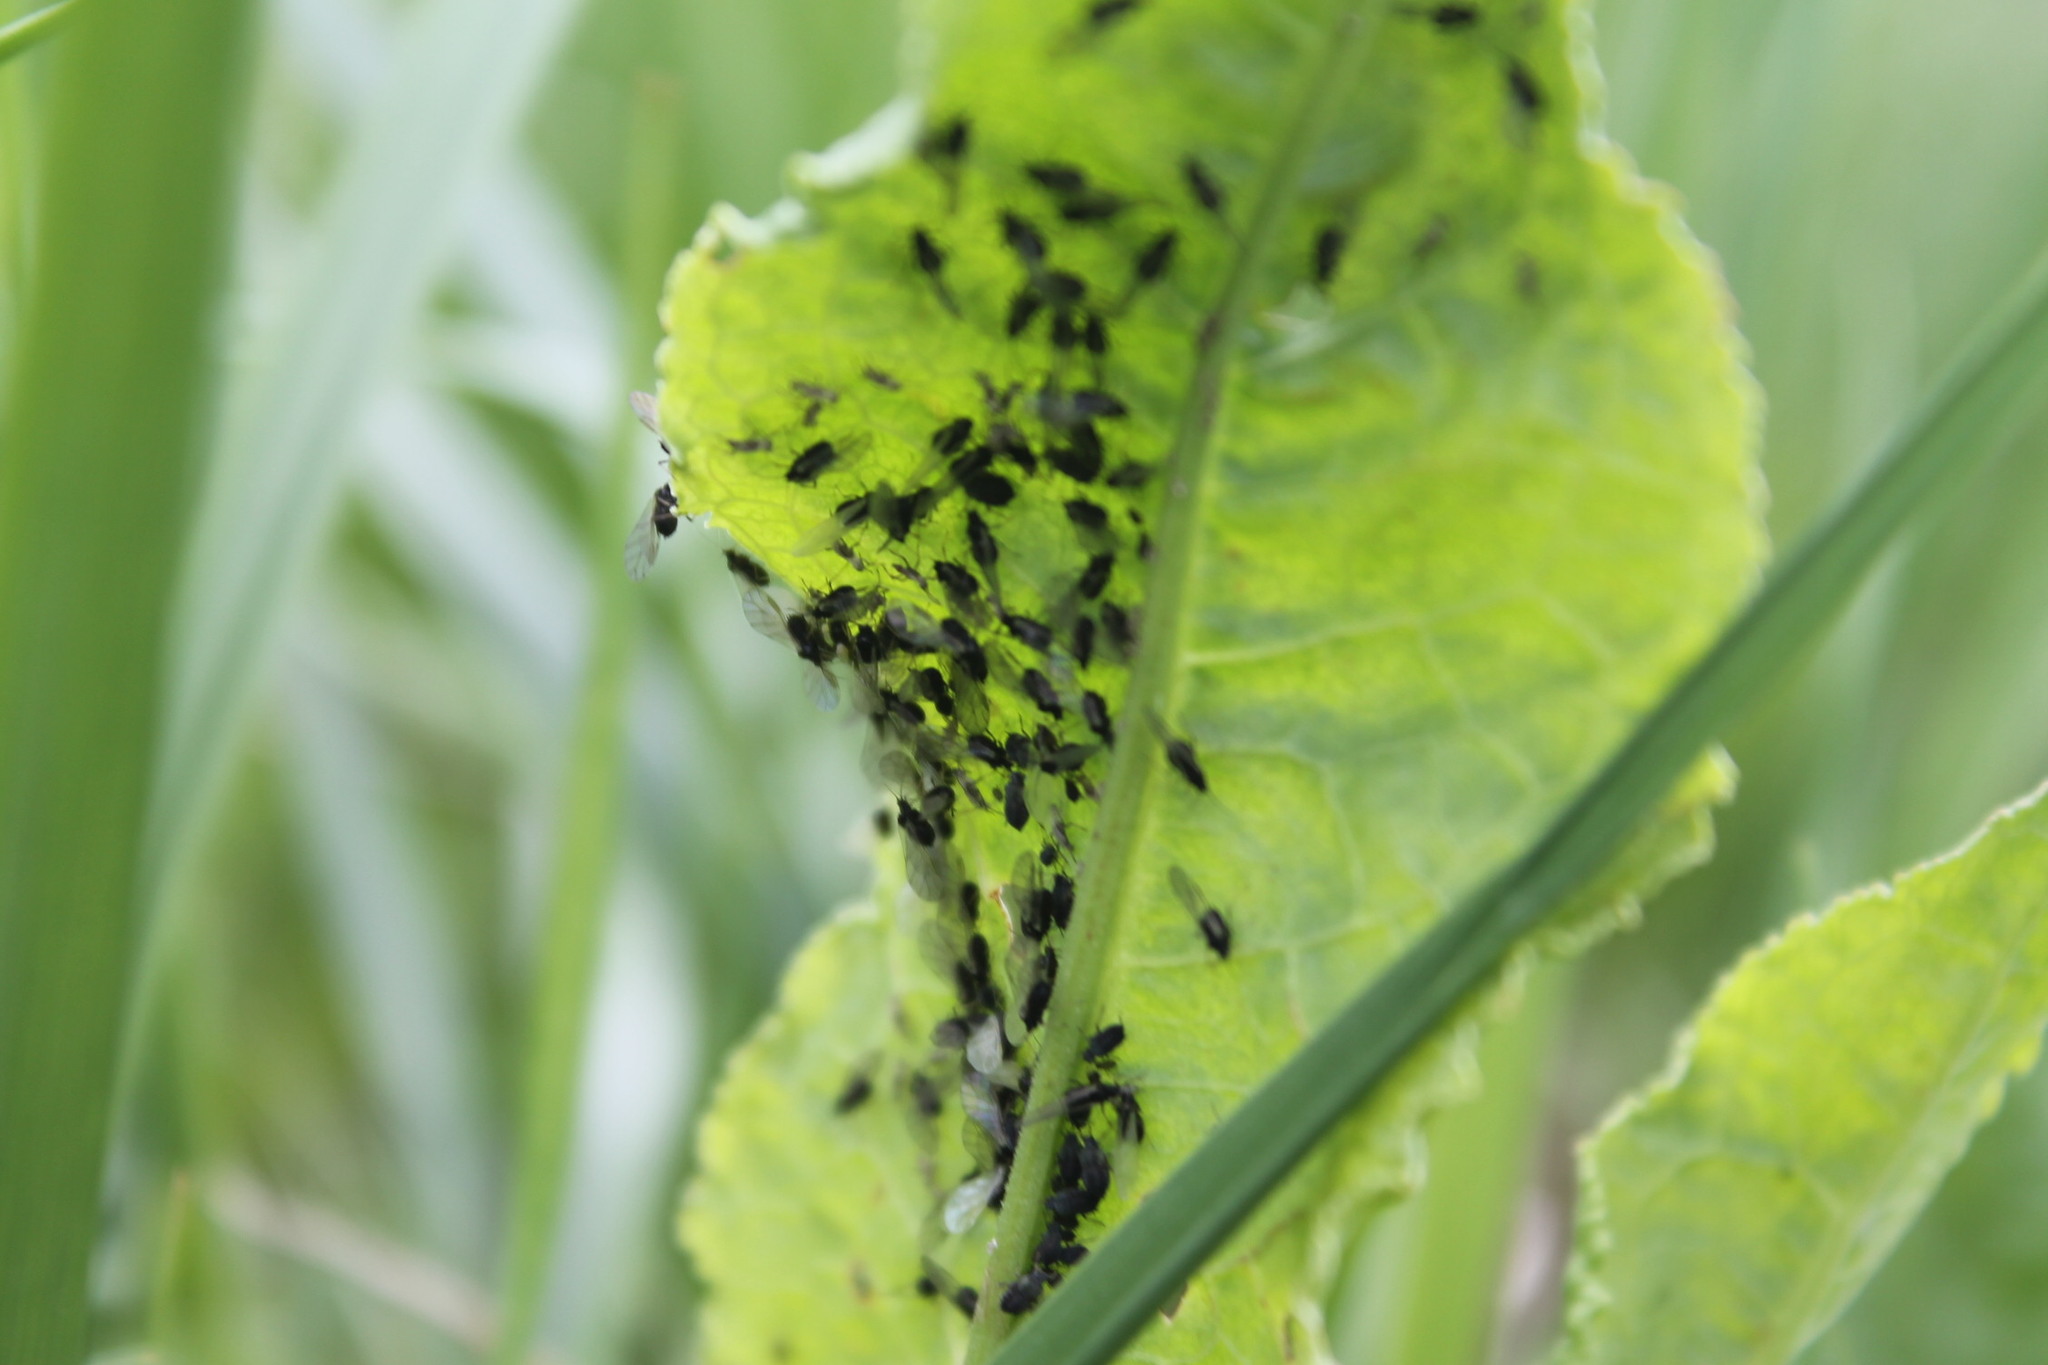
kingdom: Animalia
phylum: Arthropoda
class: Insecta
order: Hemiptera
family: Aphididae
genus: Aphis
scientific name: Aphis fabae
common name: Bean aphid
